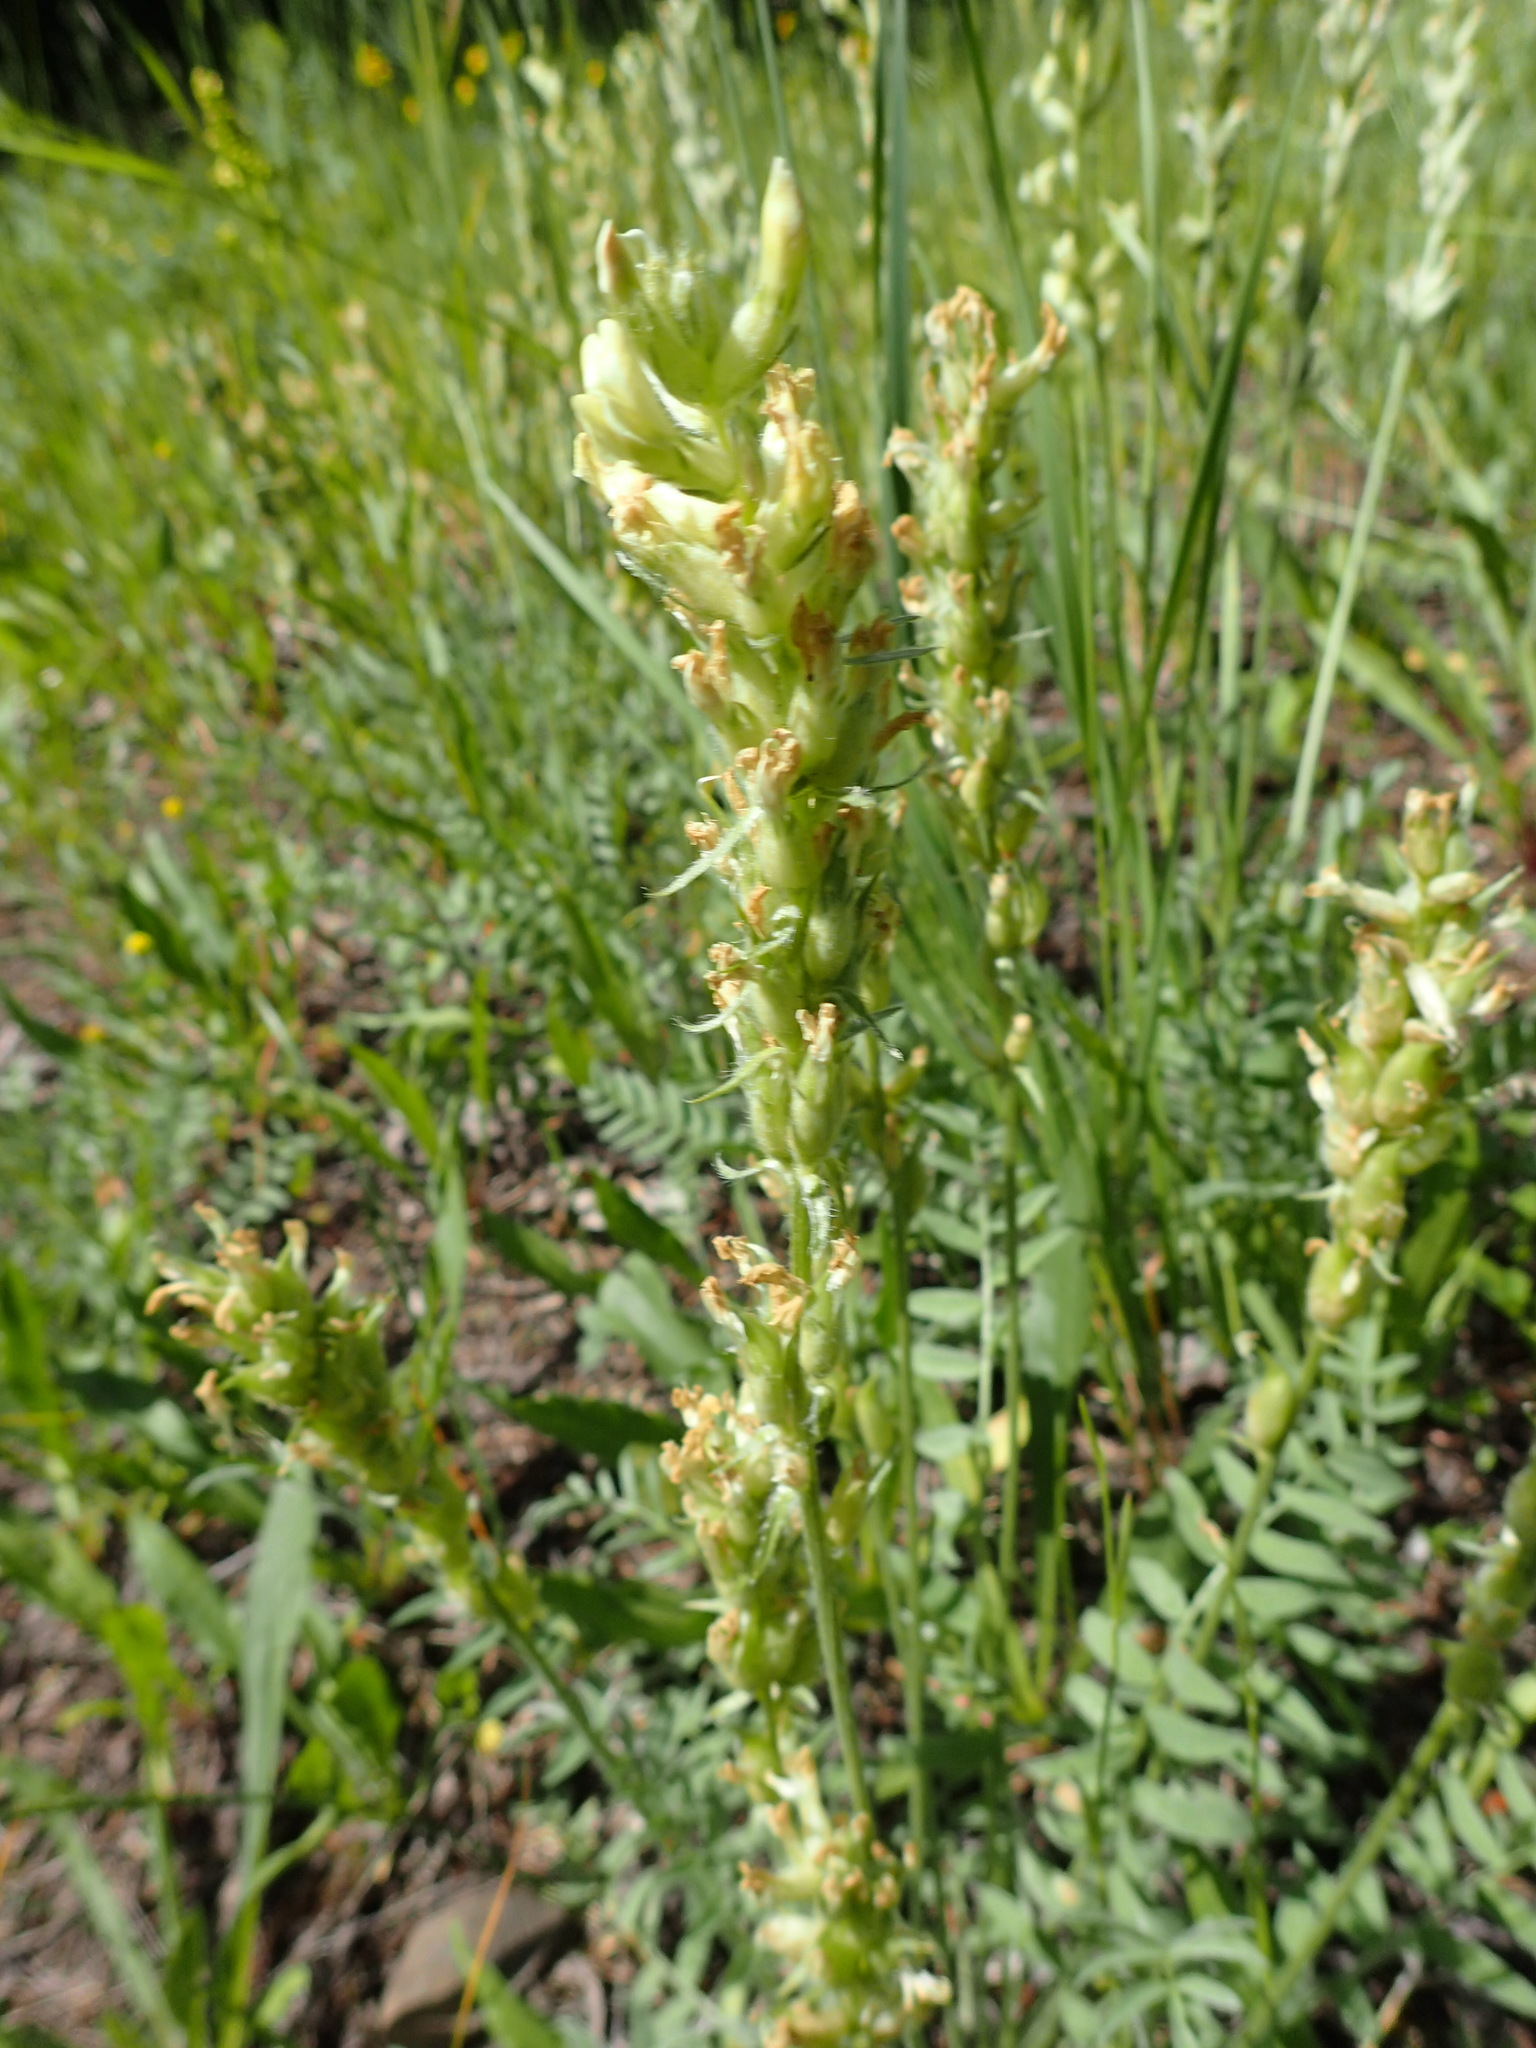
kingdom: Plantae
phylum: Tracheophyta
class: Magnoliopsida
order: Fabales
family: Fabaceae
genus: Oxytropis
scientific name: Oxytropis campestris
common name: Field locoweed
